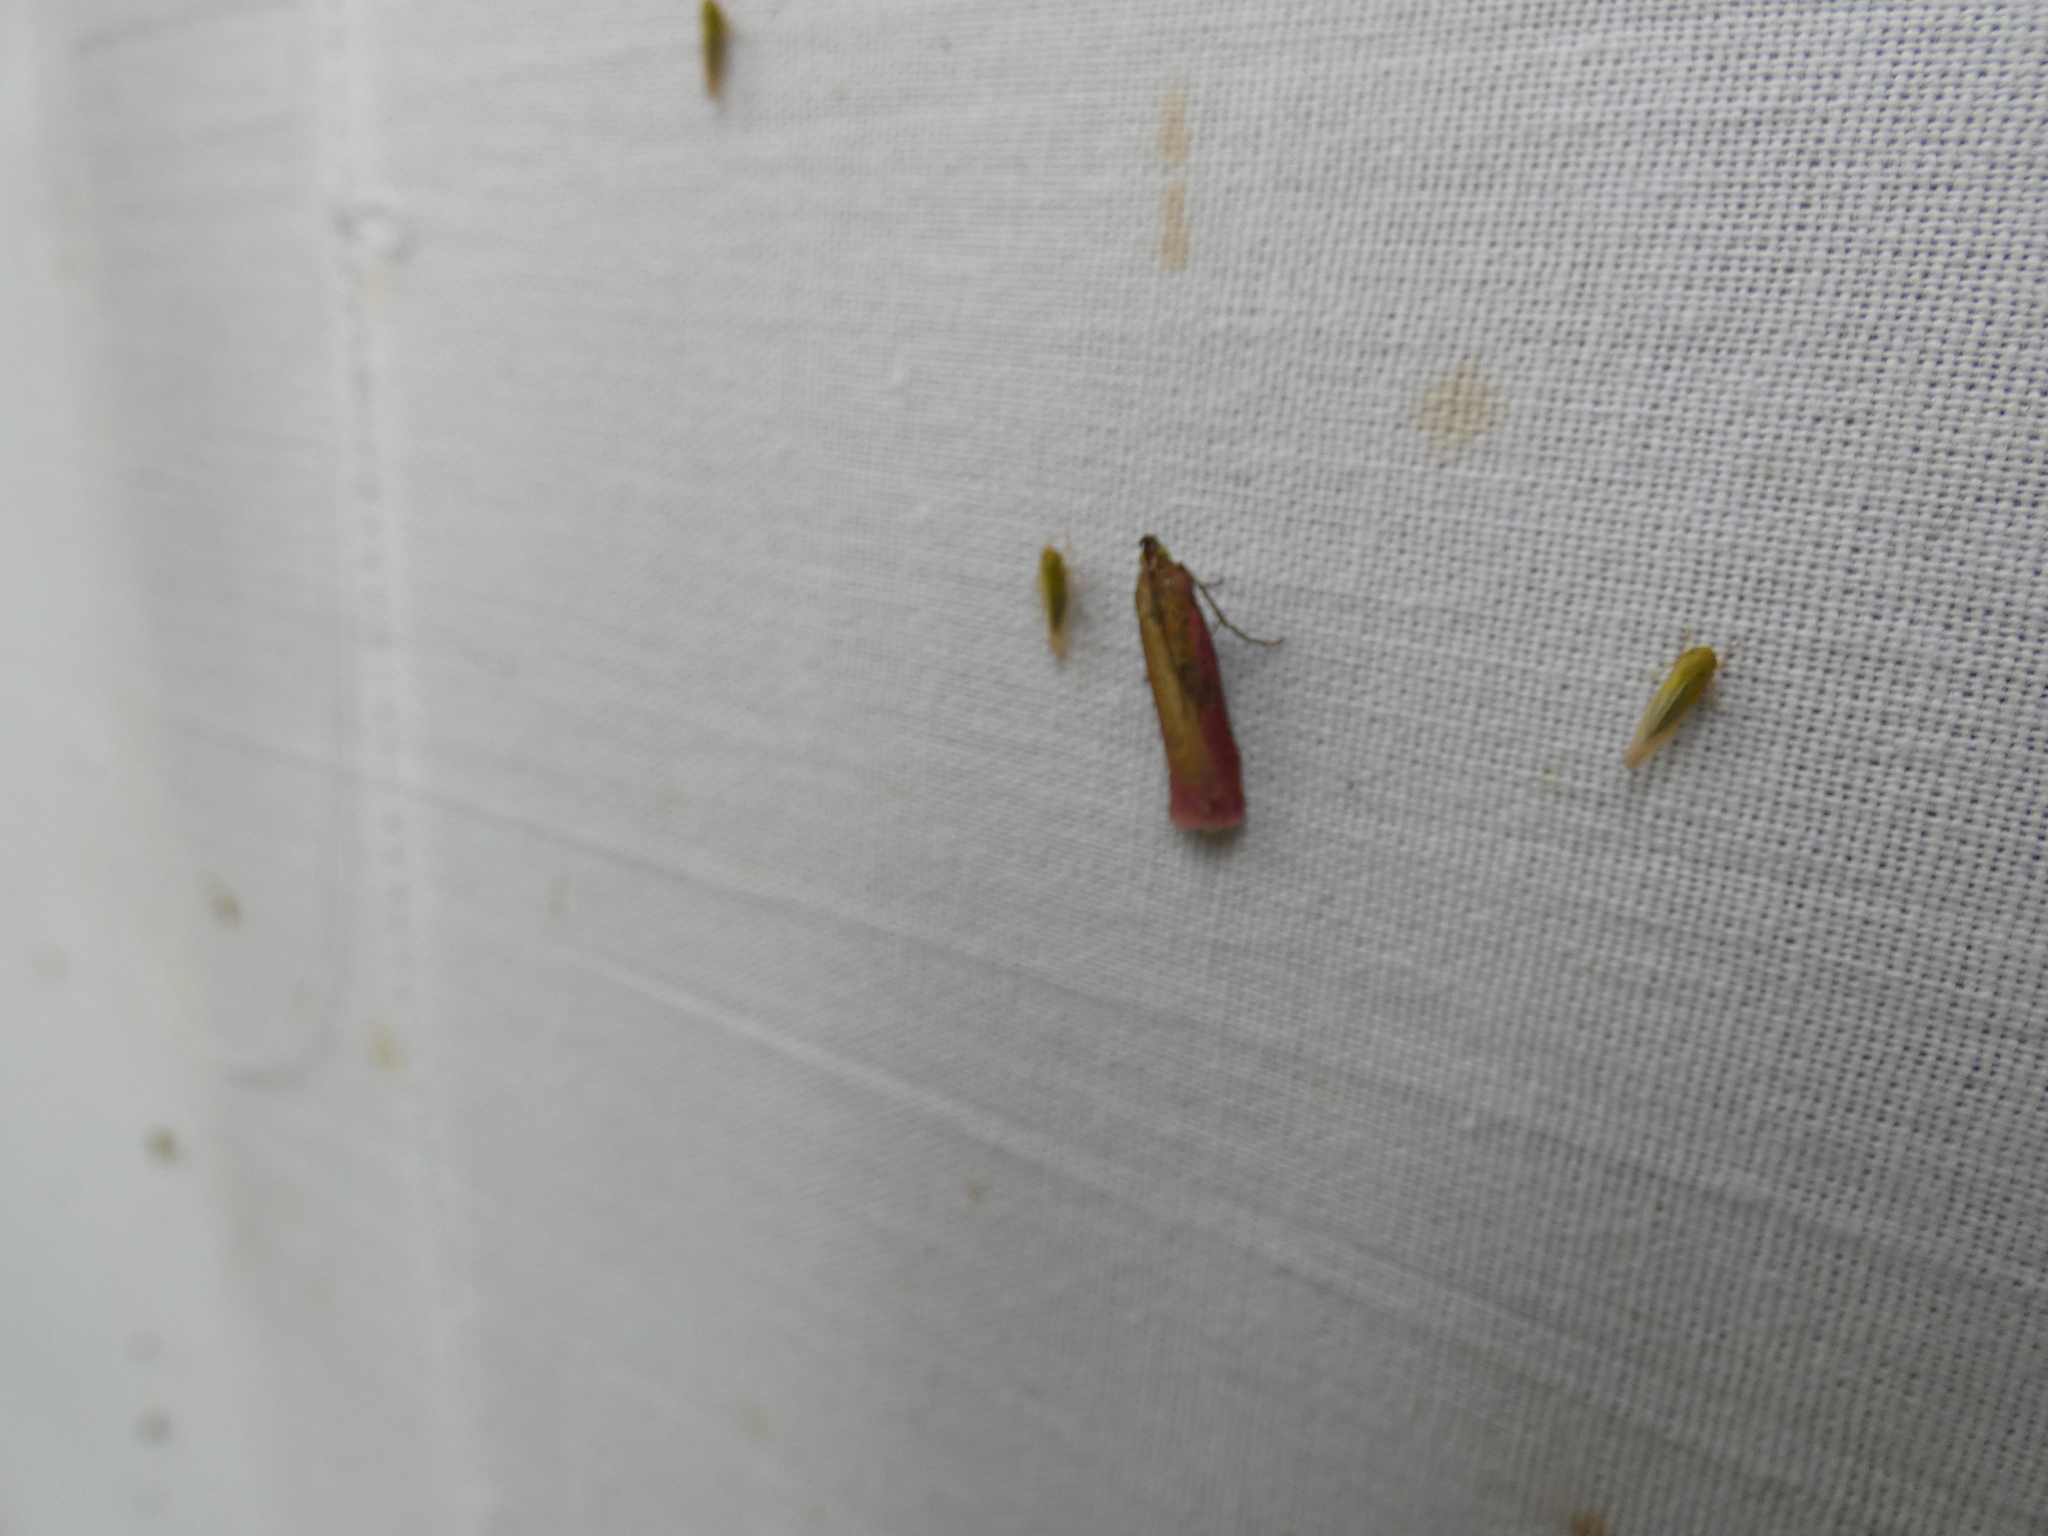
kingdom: Animalia
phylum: Arthropoda
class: Insecta
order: Lepidoptera
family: Pyralidae
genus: Oncocera
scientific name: Oncocera semirubella
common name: Rosy-striped knot-horn
